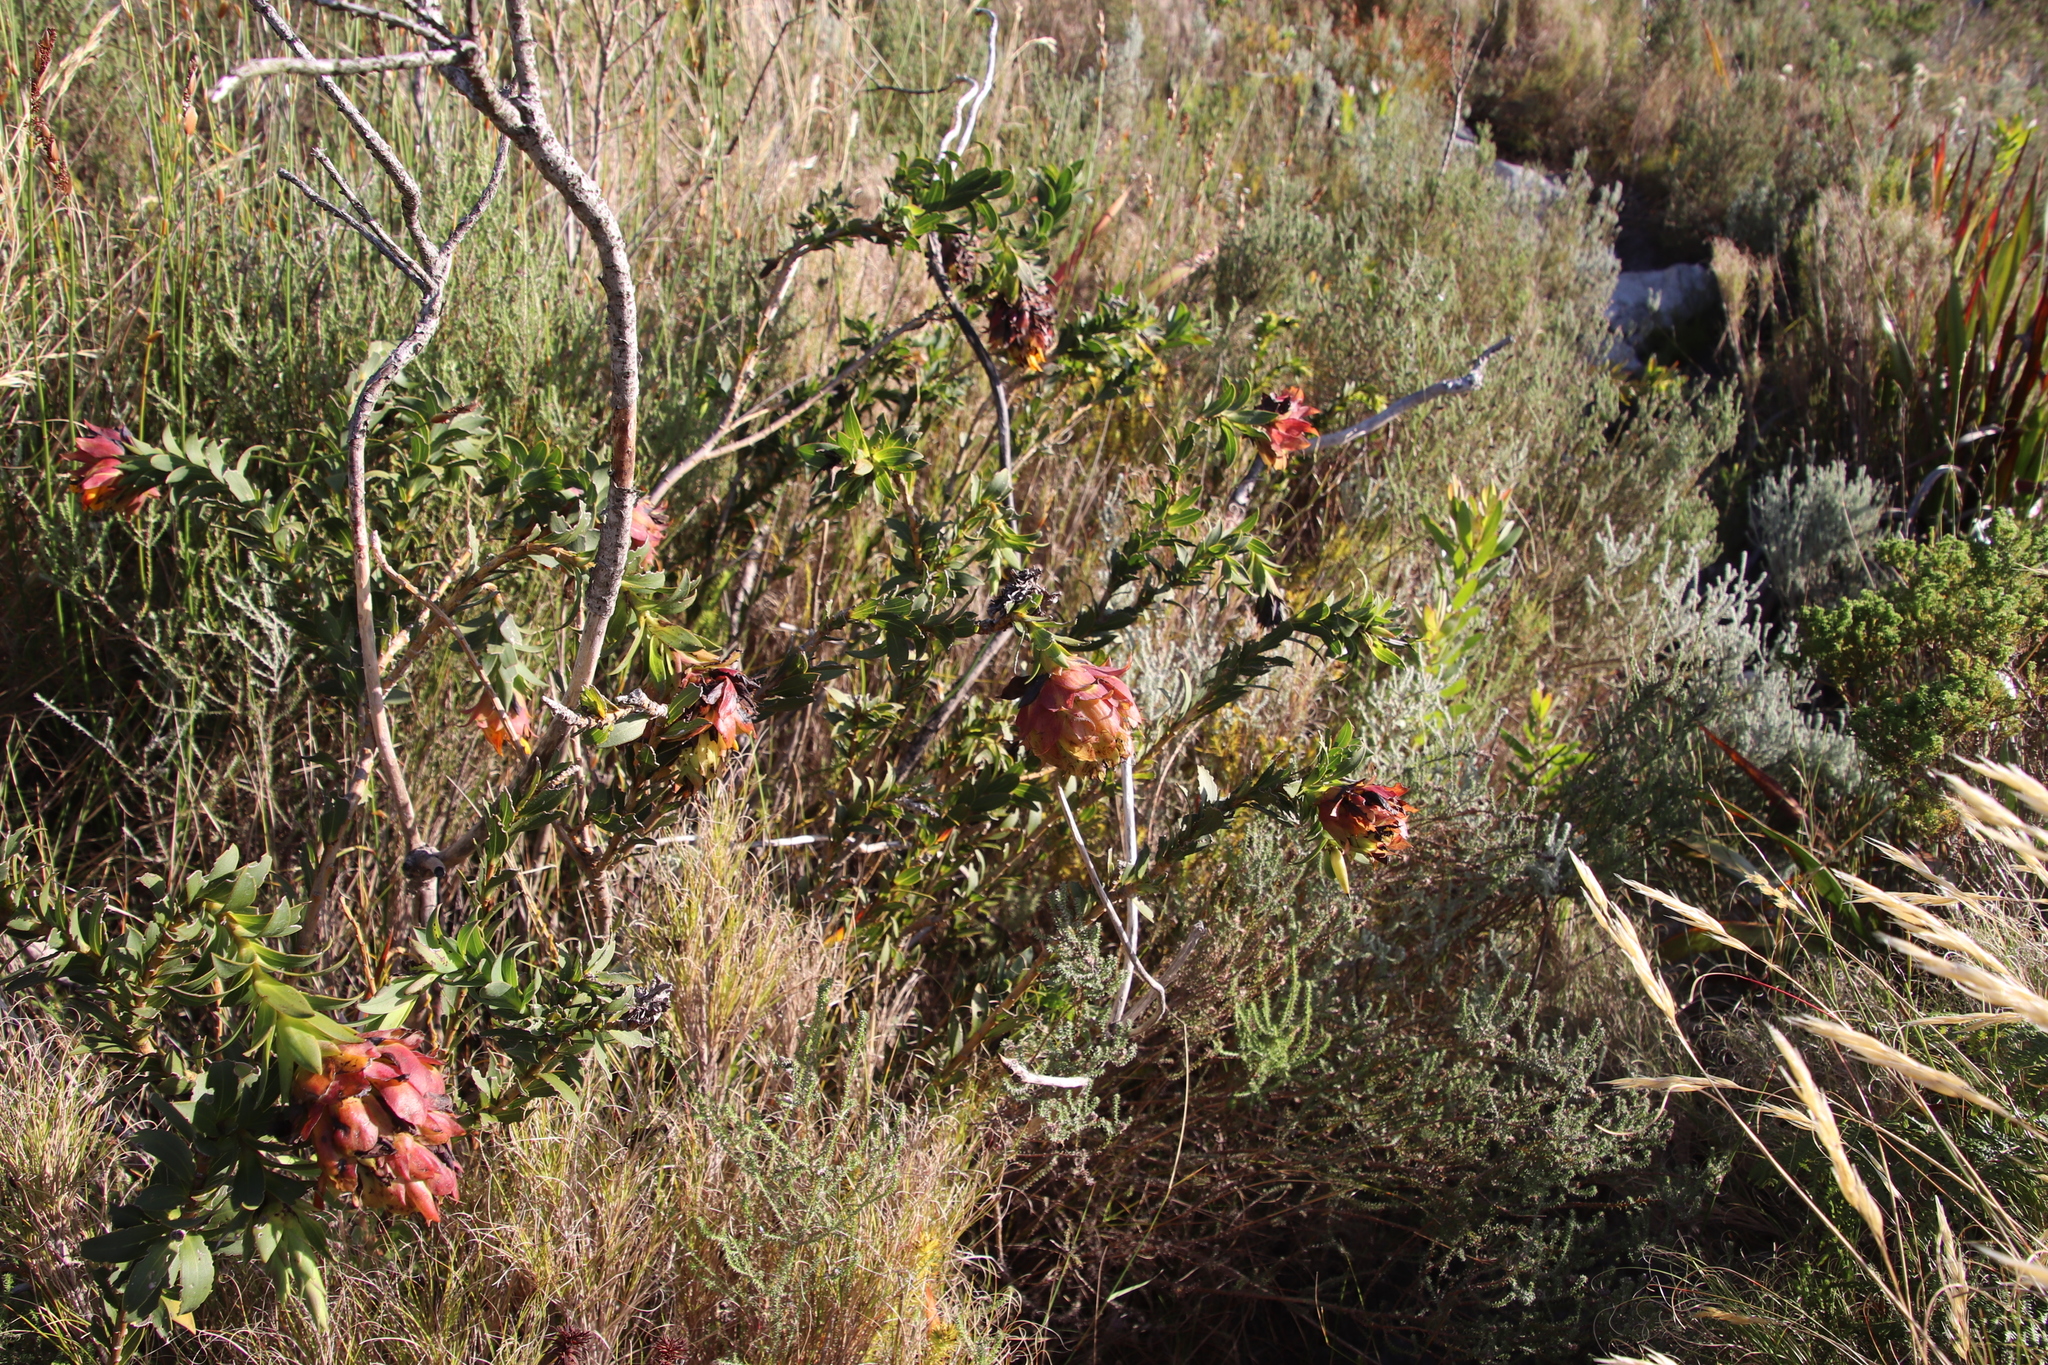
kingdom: Plantae
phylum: Tracheophyta
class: Magnoliopsida
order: Fabales
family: Fabaceae
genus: Liparia
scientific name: Liparia splendens
